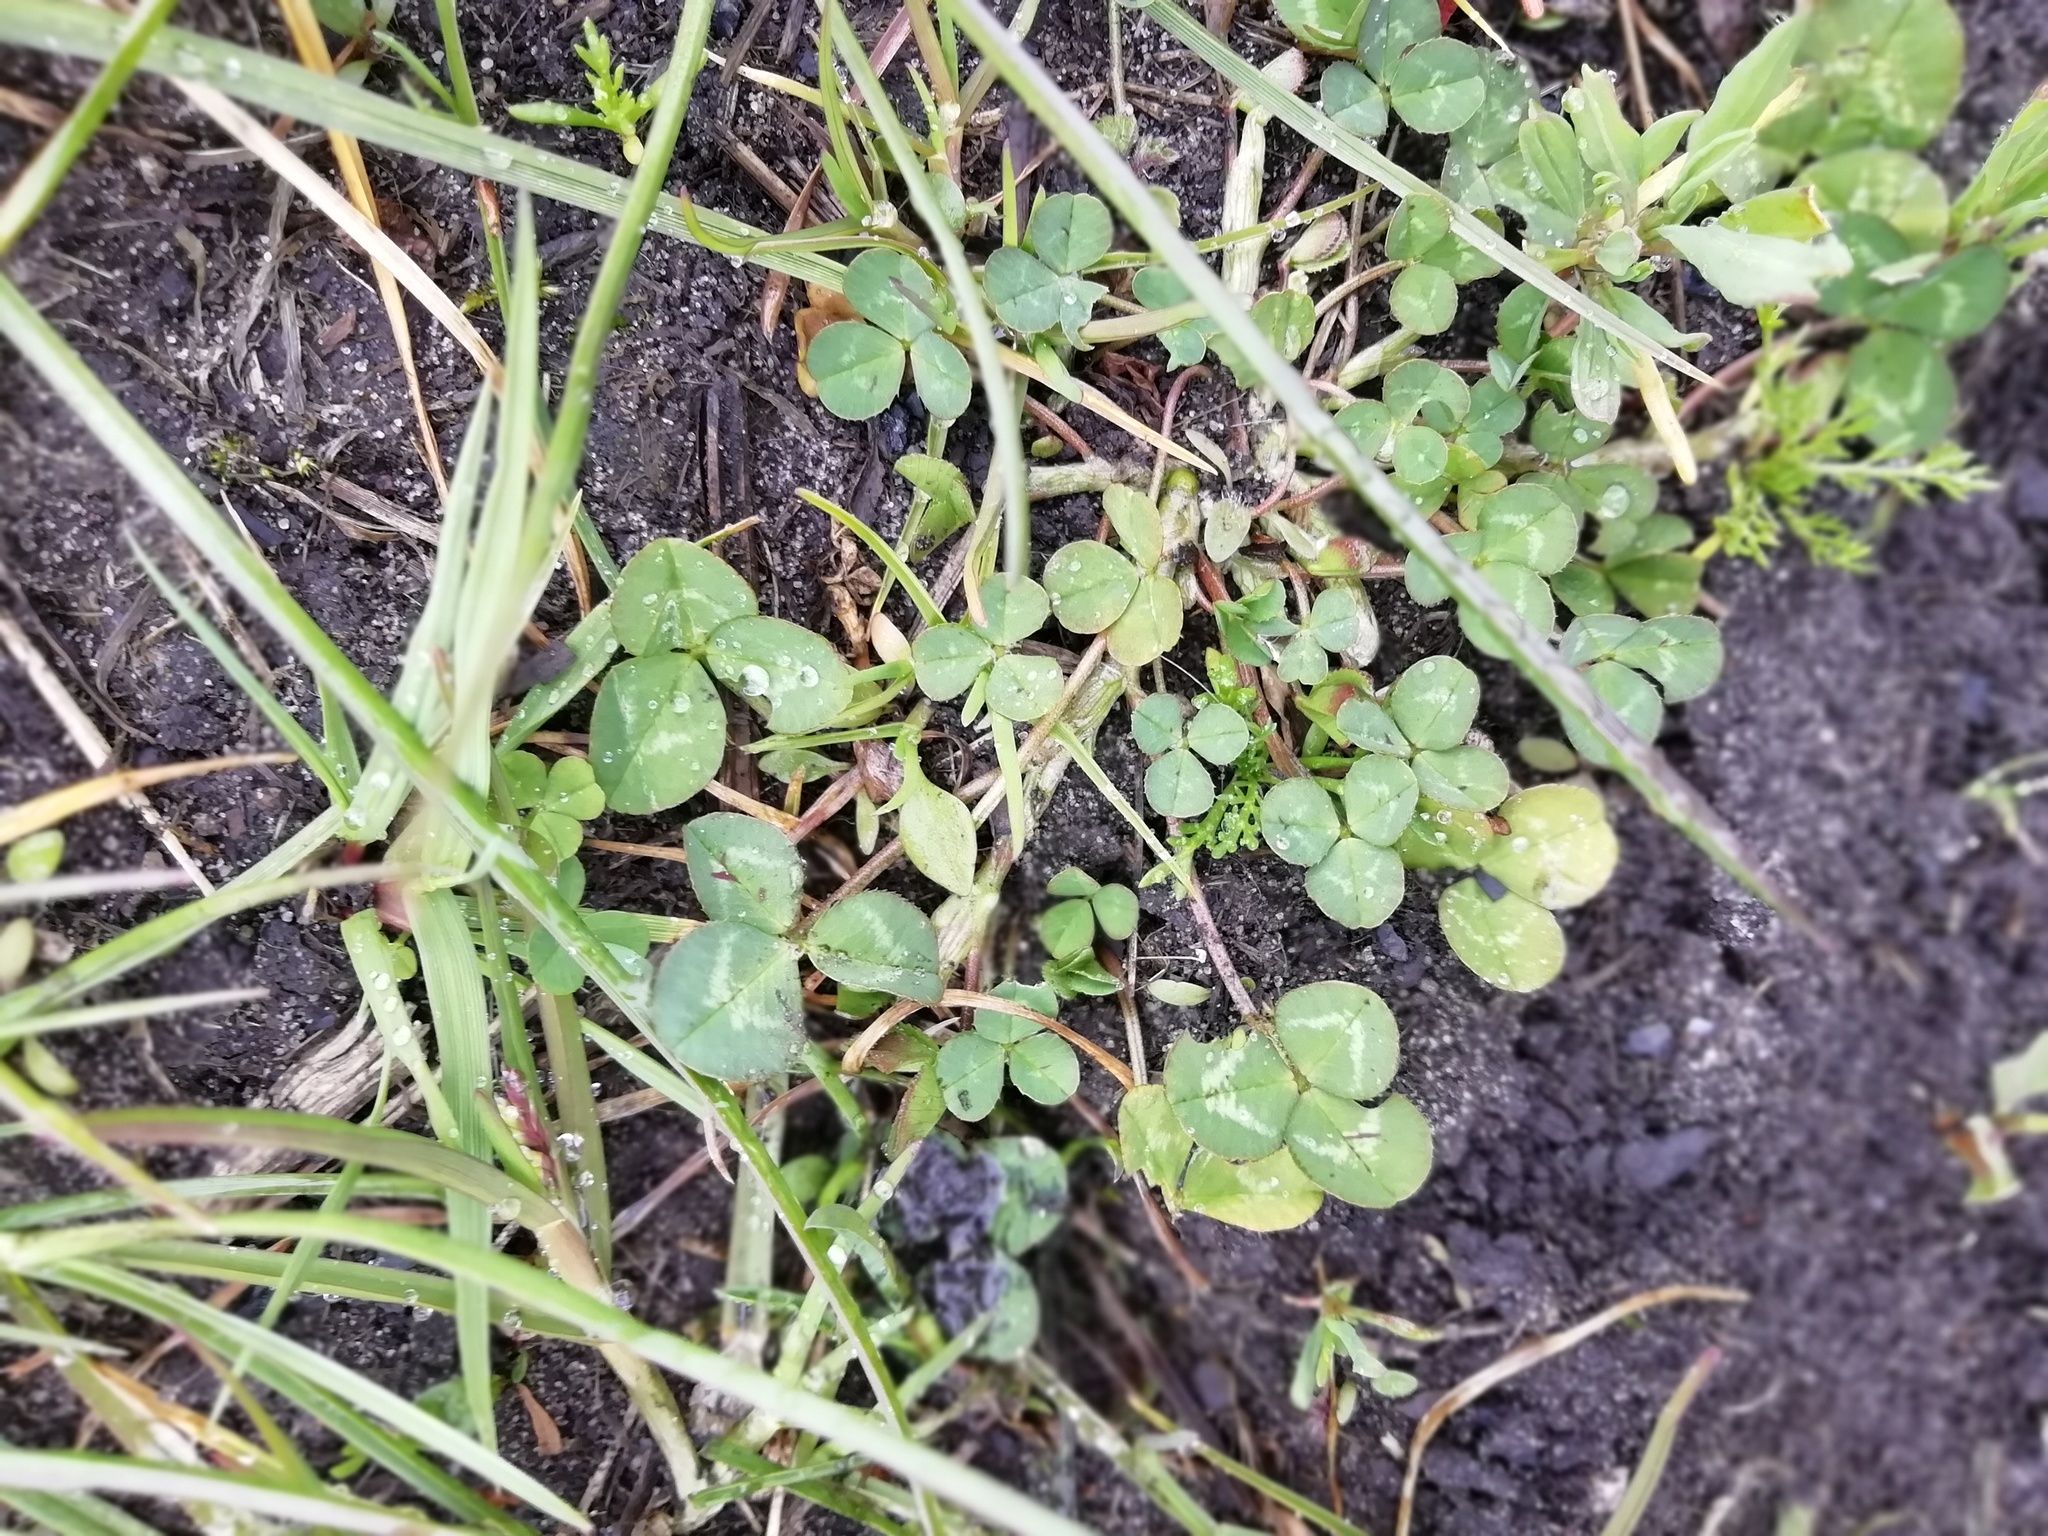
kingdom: Plantae
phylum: Tracheophyta
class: Magnoliopsida
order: Fabales
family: Fabaceae
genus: Trifolium
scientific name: Trifolium repens
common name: White clover
